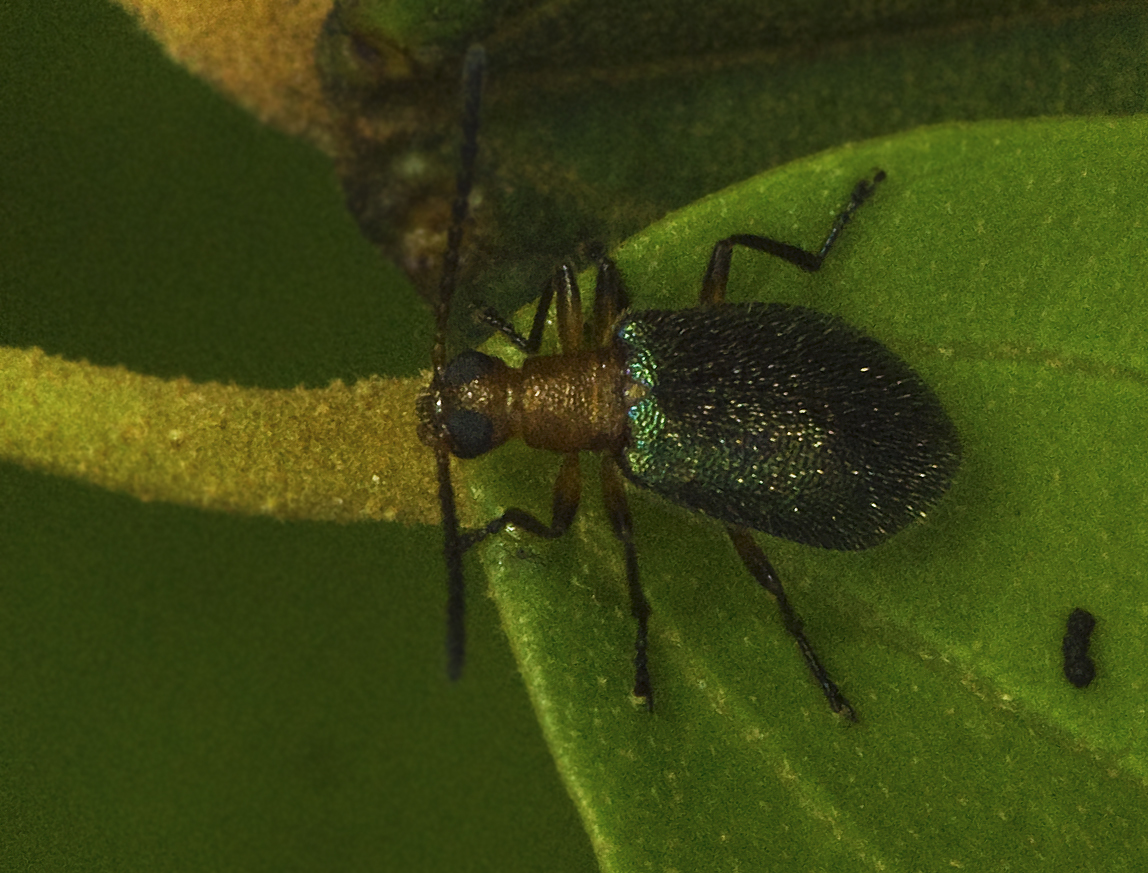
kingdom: Animalia
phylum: Arthropoda
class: Insecta
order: Coleoptera
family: Tenebrionidae
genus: Lagria
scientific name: Lagria
